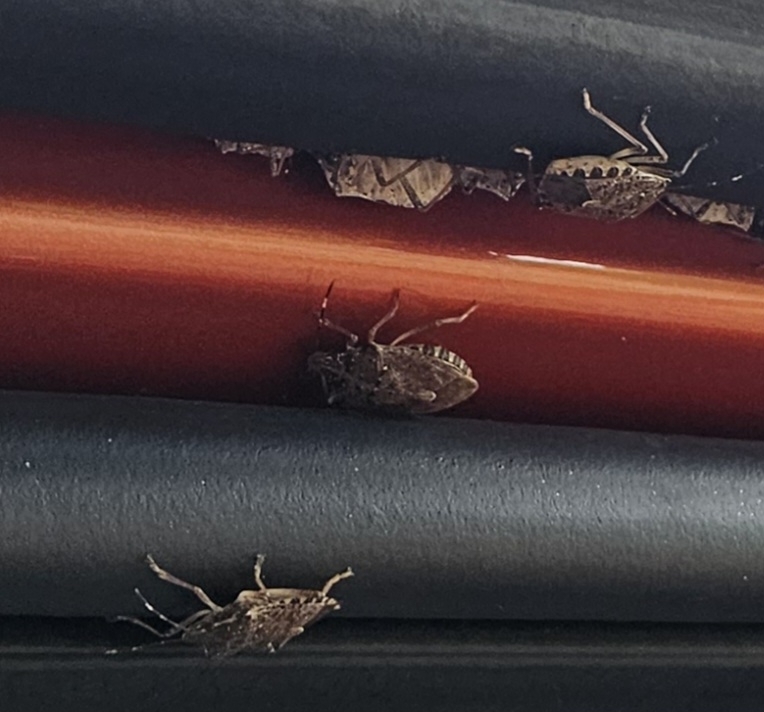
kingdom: Animalia
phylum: Arthropoda
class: Insecta
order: Hemiptera
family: Pentatomidae
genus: Halyomorpha
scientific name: Halyomorpha halys
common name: Brown marmorated stink bug
